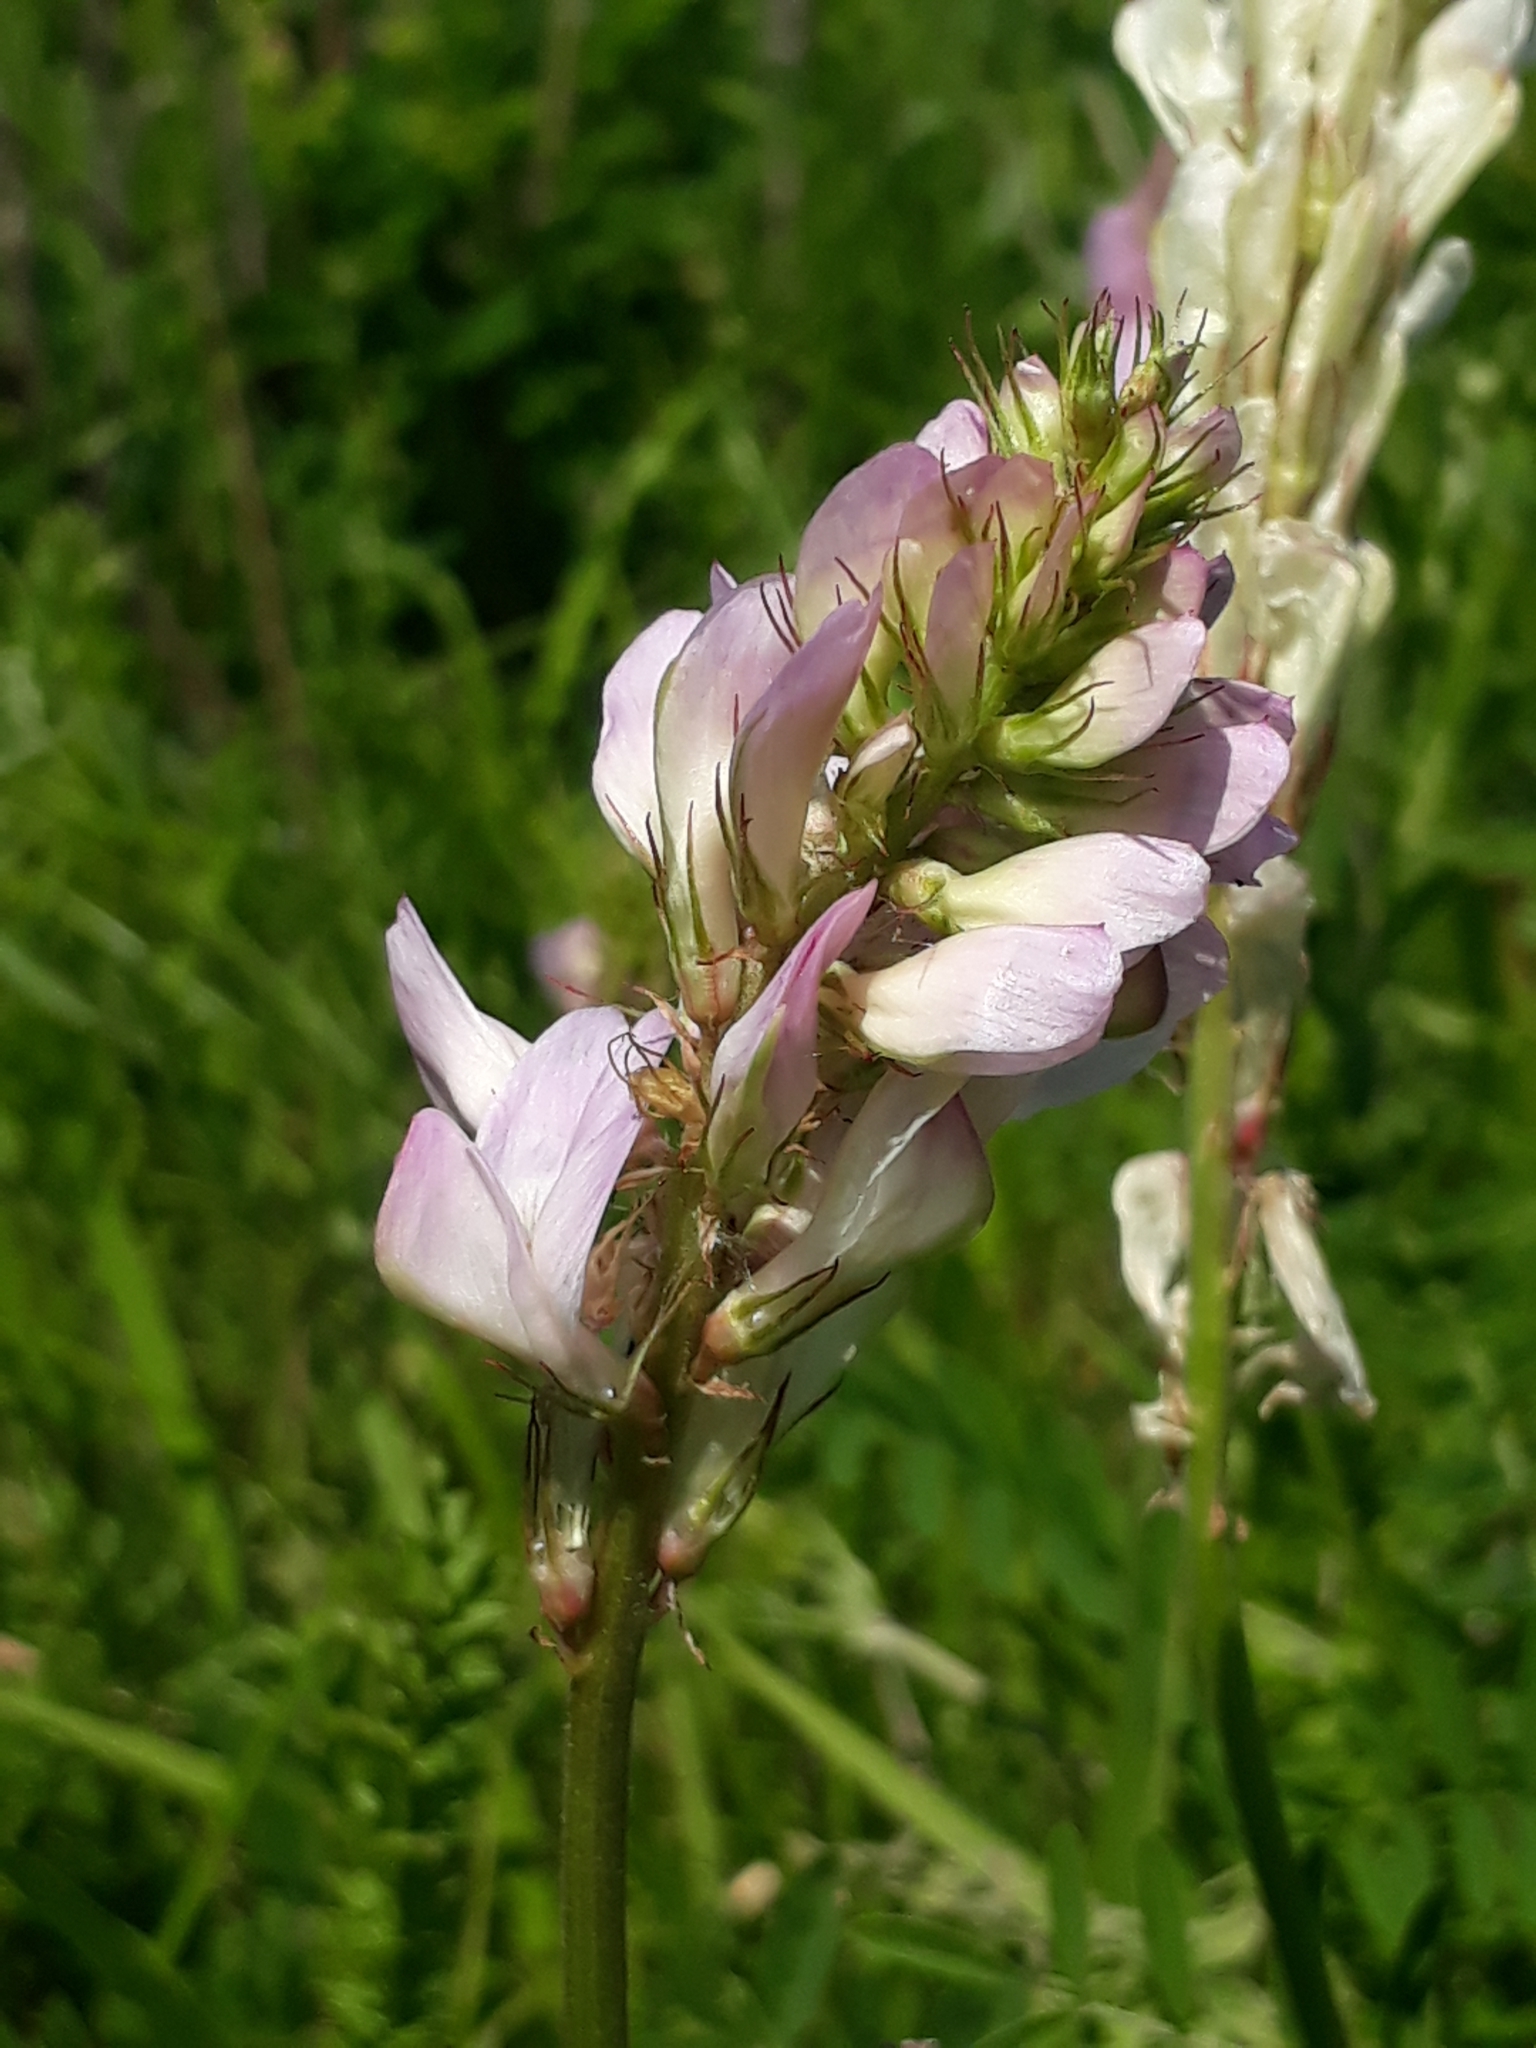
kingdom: Plantae
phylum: Tracheophyta
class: Magnoliopsida
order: Fabales
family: Fabaceae
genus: Hedysarum
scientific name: Hedysarum gmelinii
